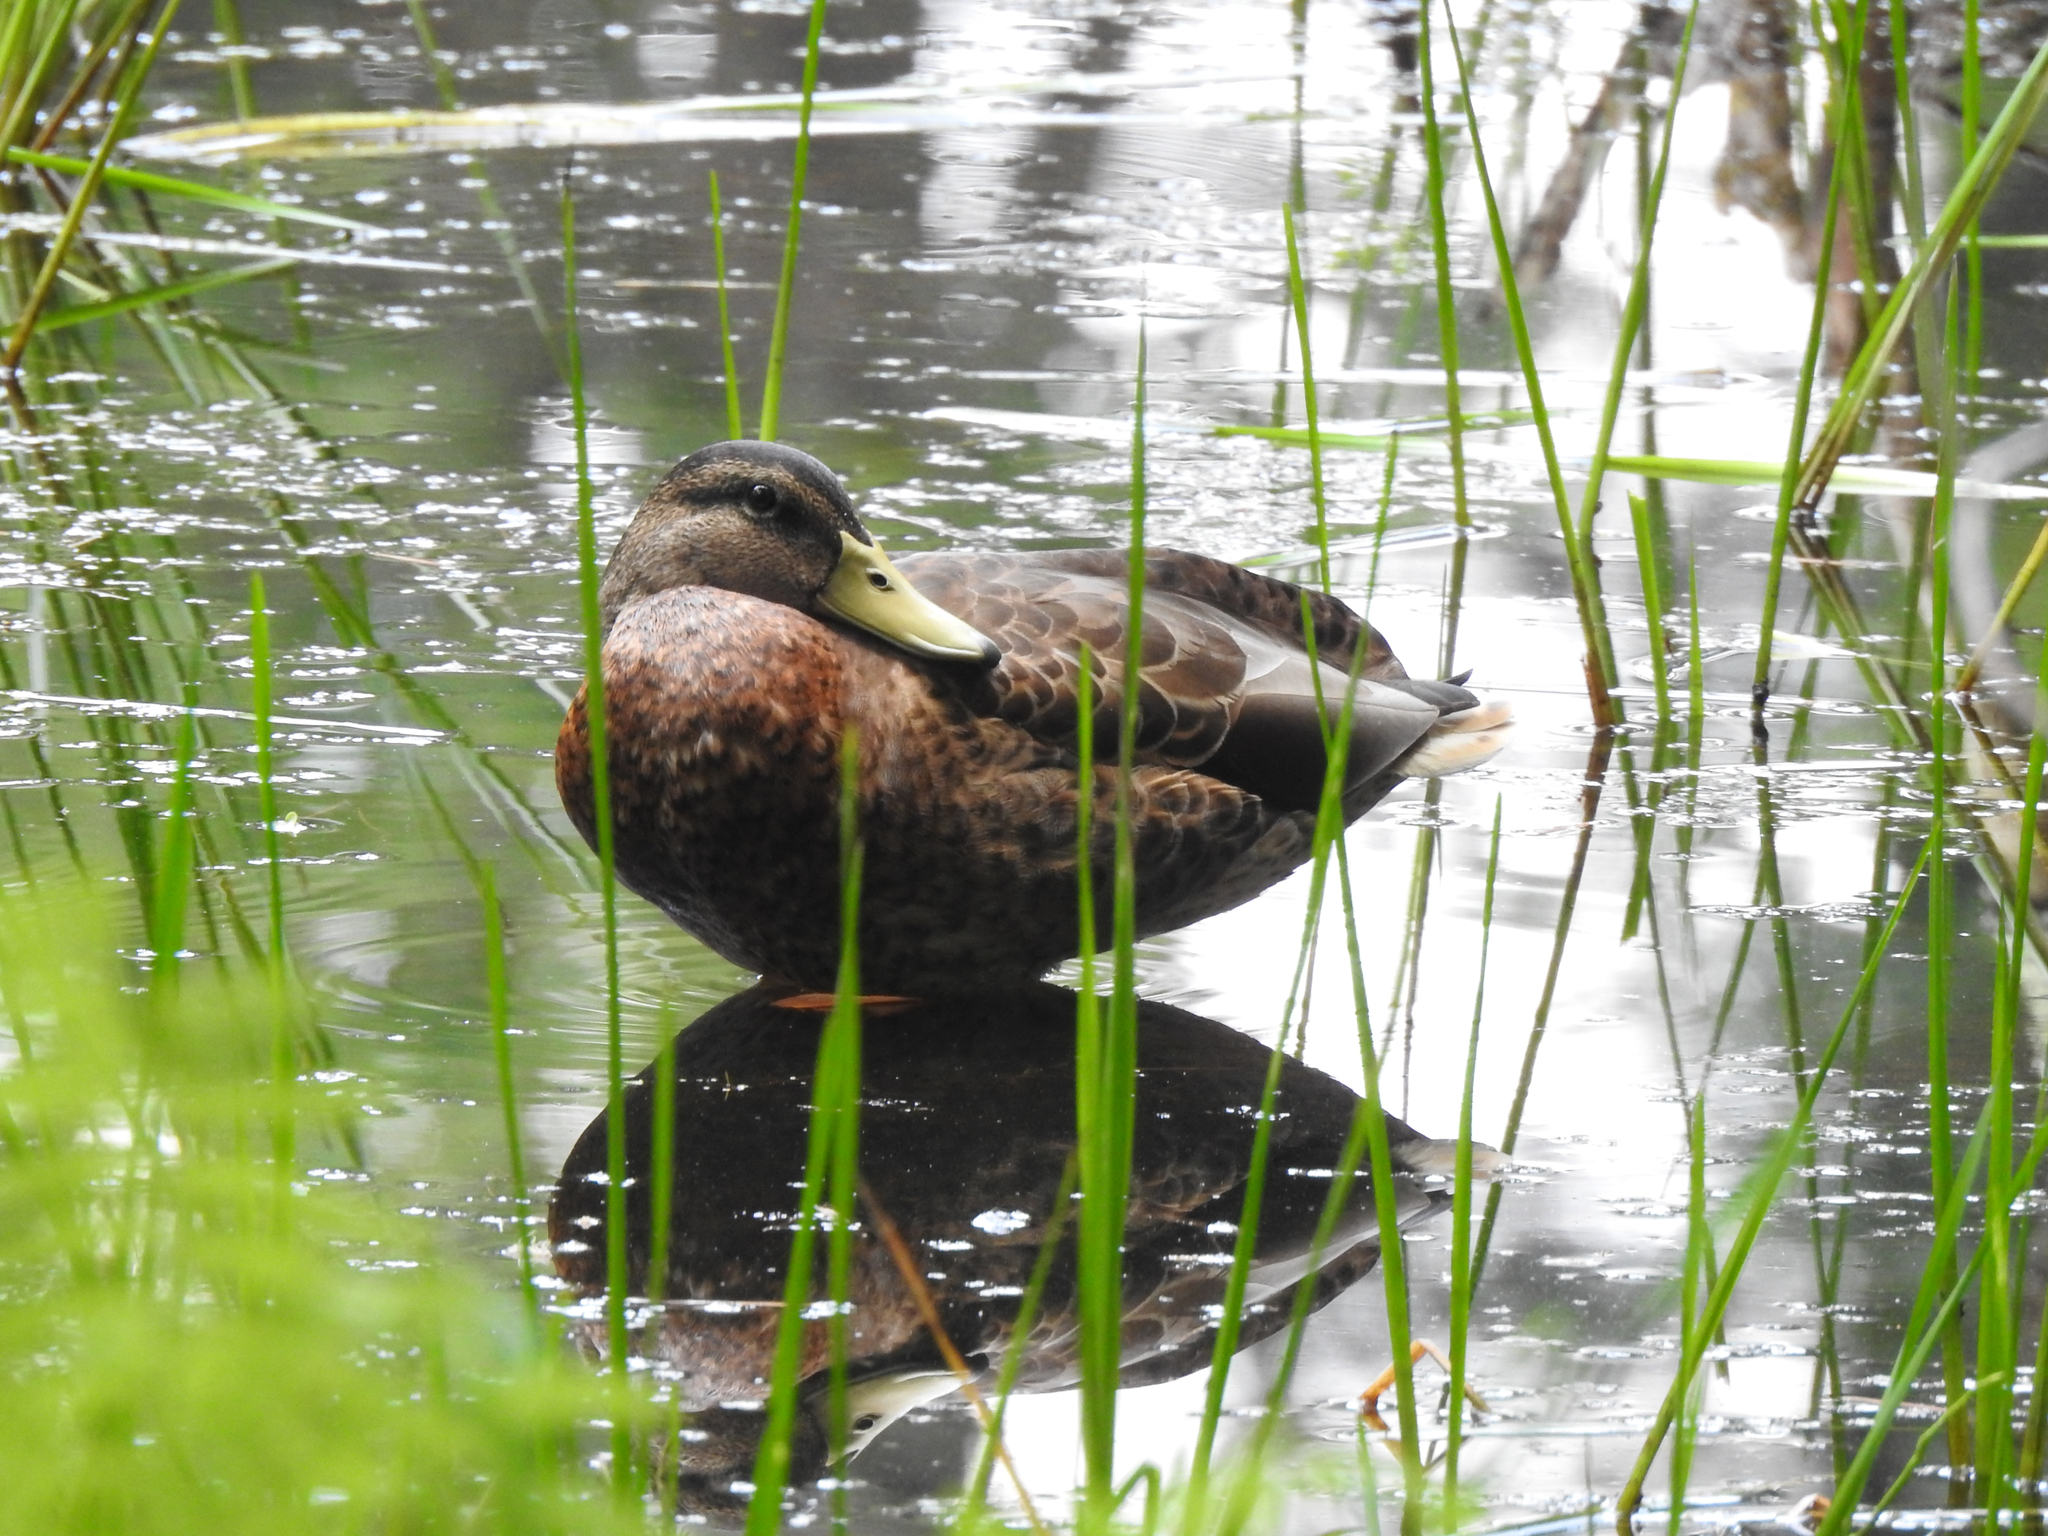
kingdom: Animalia
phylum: Chordata
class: Aves
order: Anseriformes
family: Anatidae
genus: Anas
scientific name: Anas platyrhynchos
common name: Mallard
